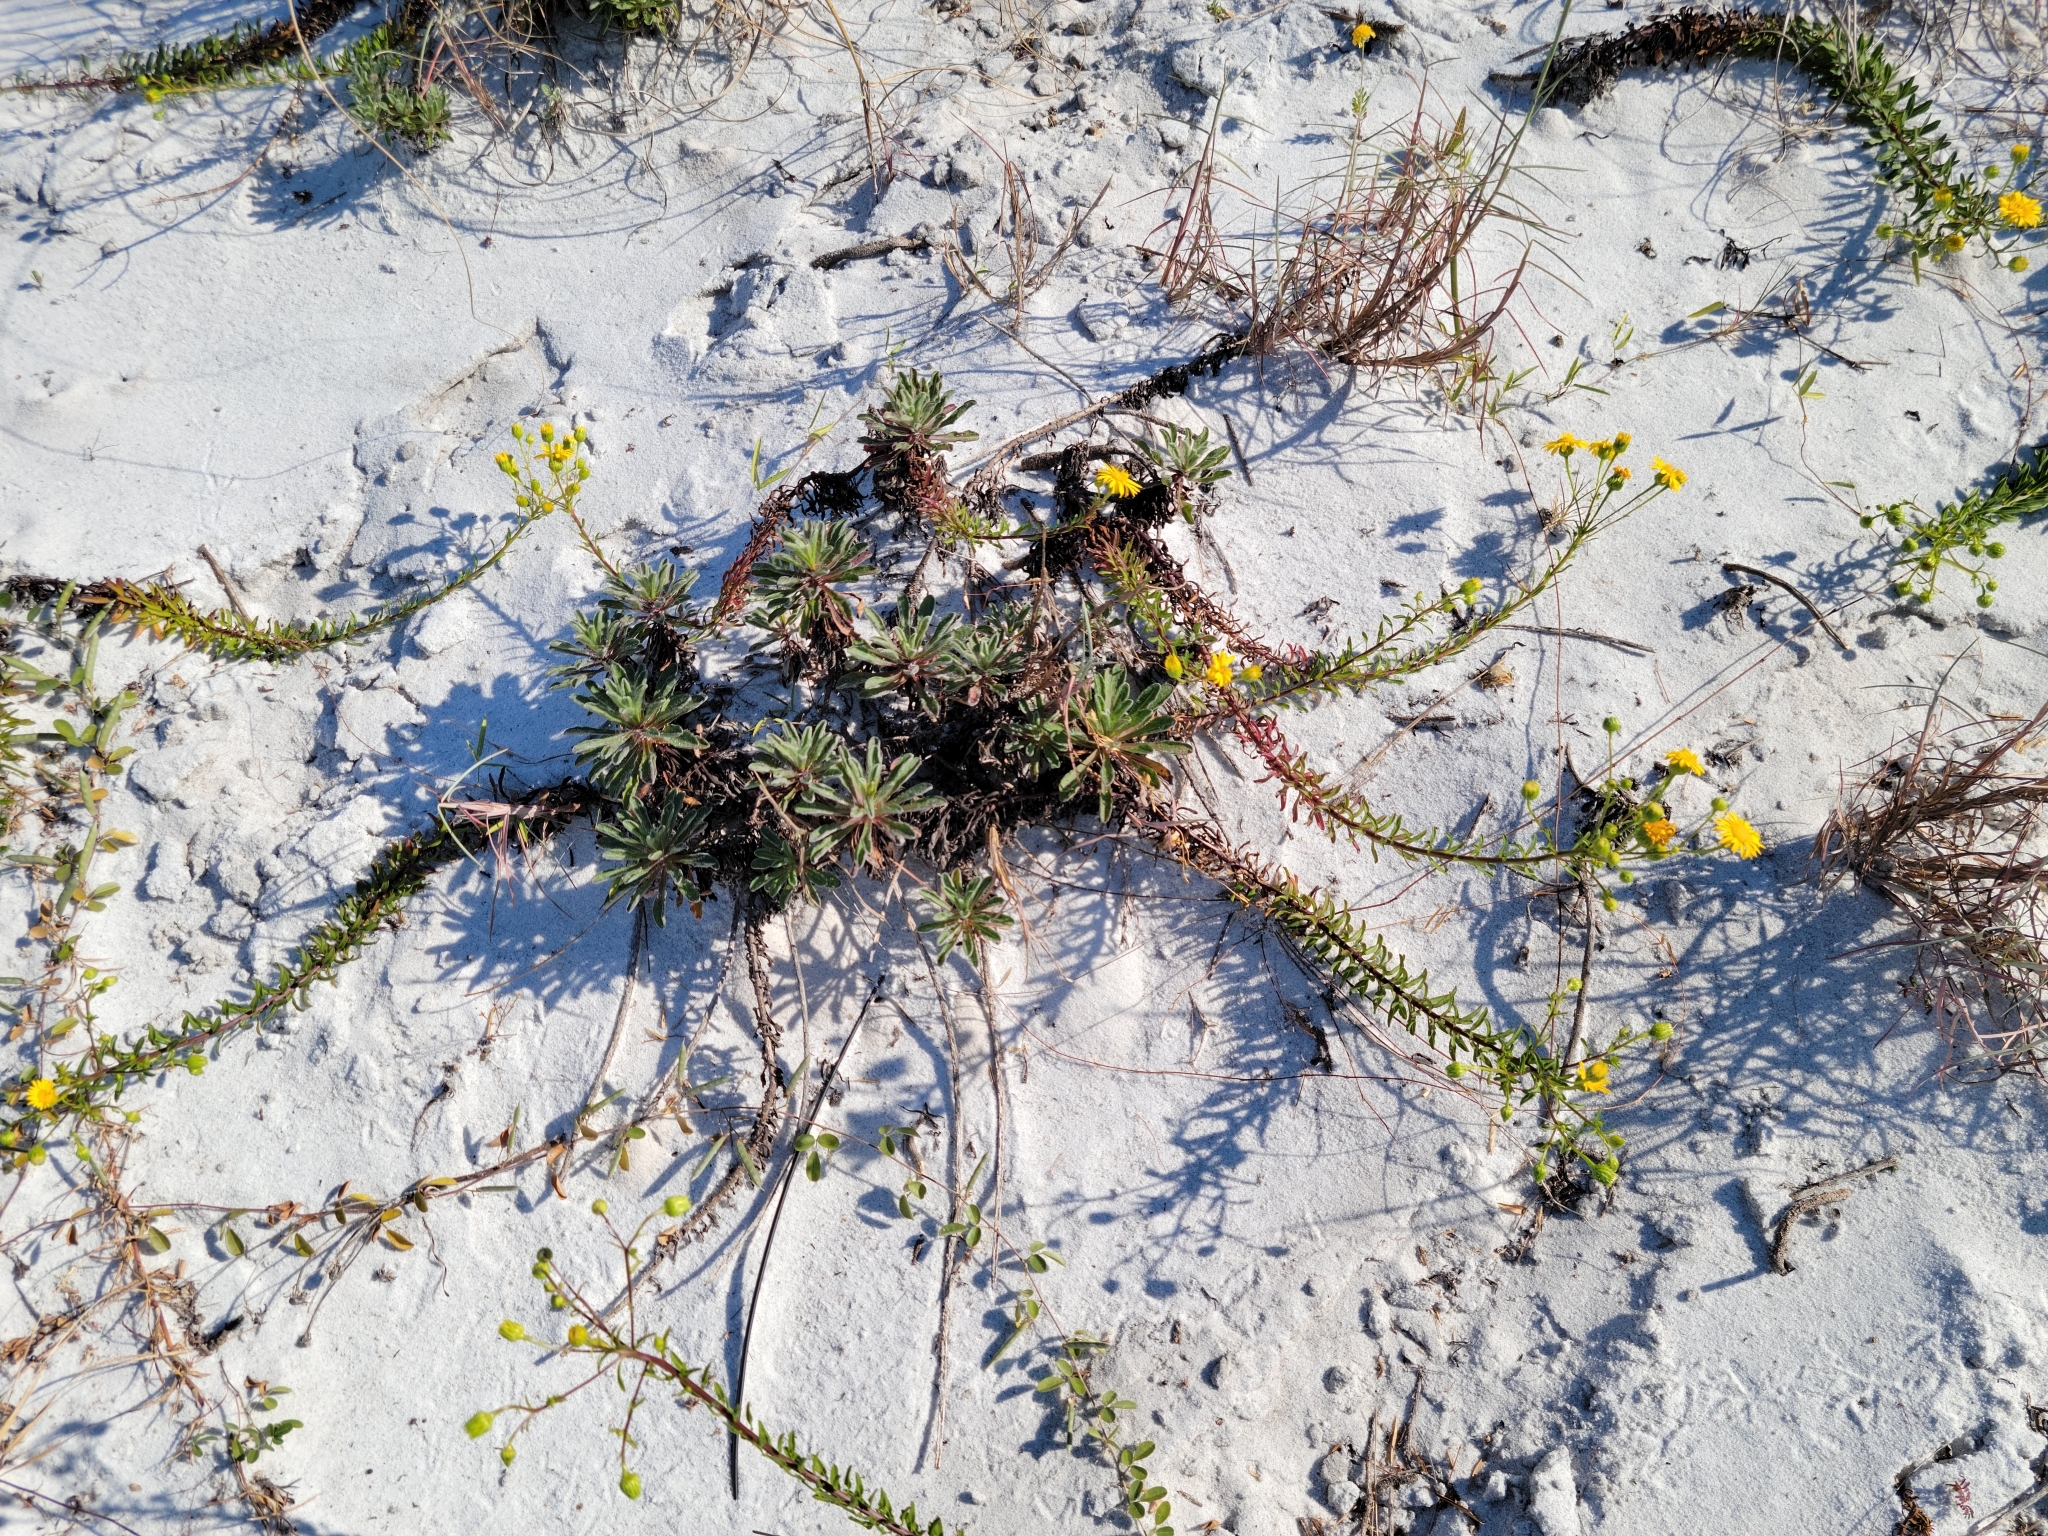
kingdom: Plantae
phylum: Tracheophyta
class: Magnoliopsida
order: Asterales
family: Asteraceae
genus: Chrysopsis
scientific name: Chrysopsis gossypina
